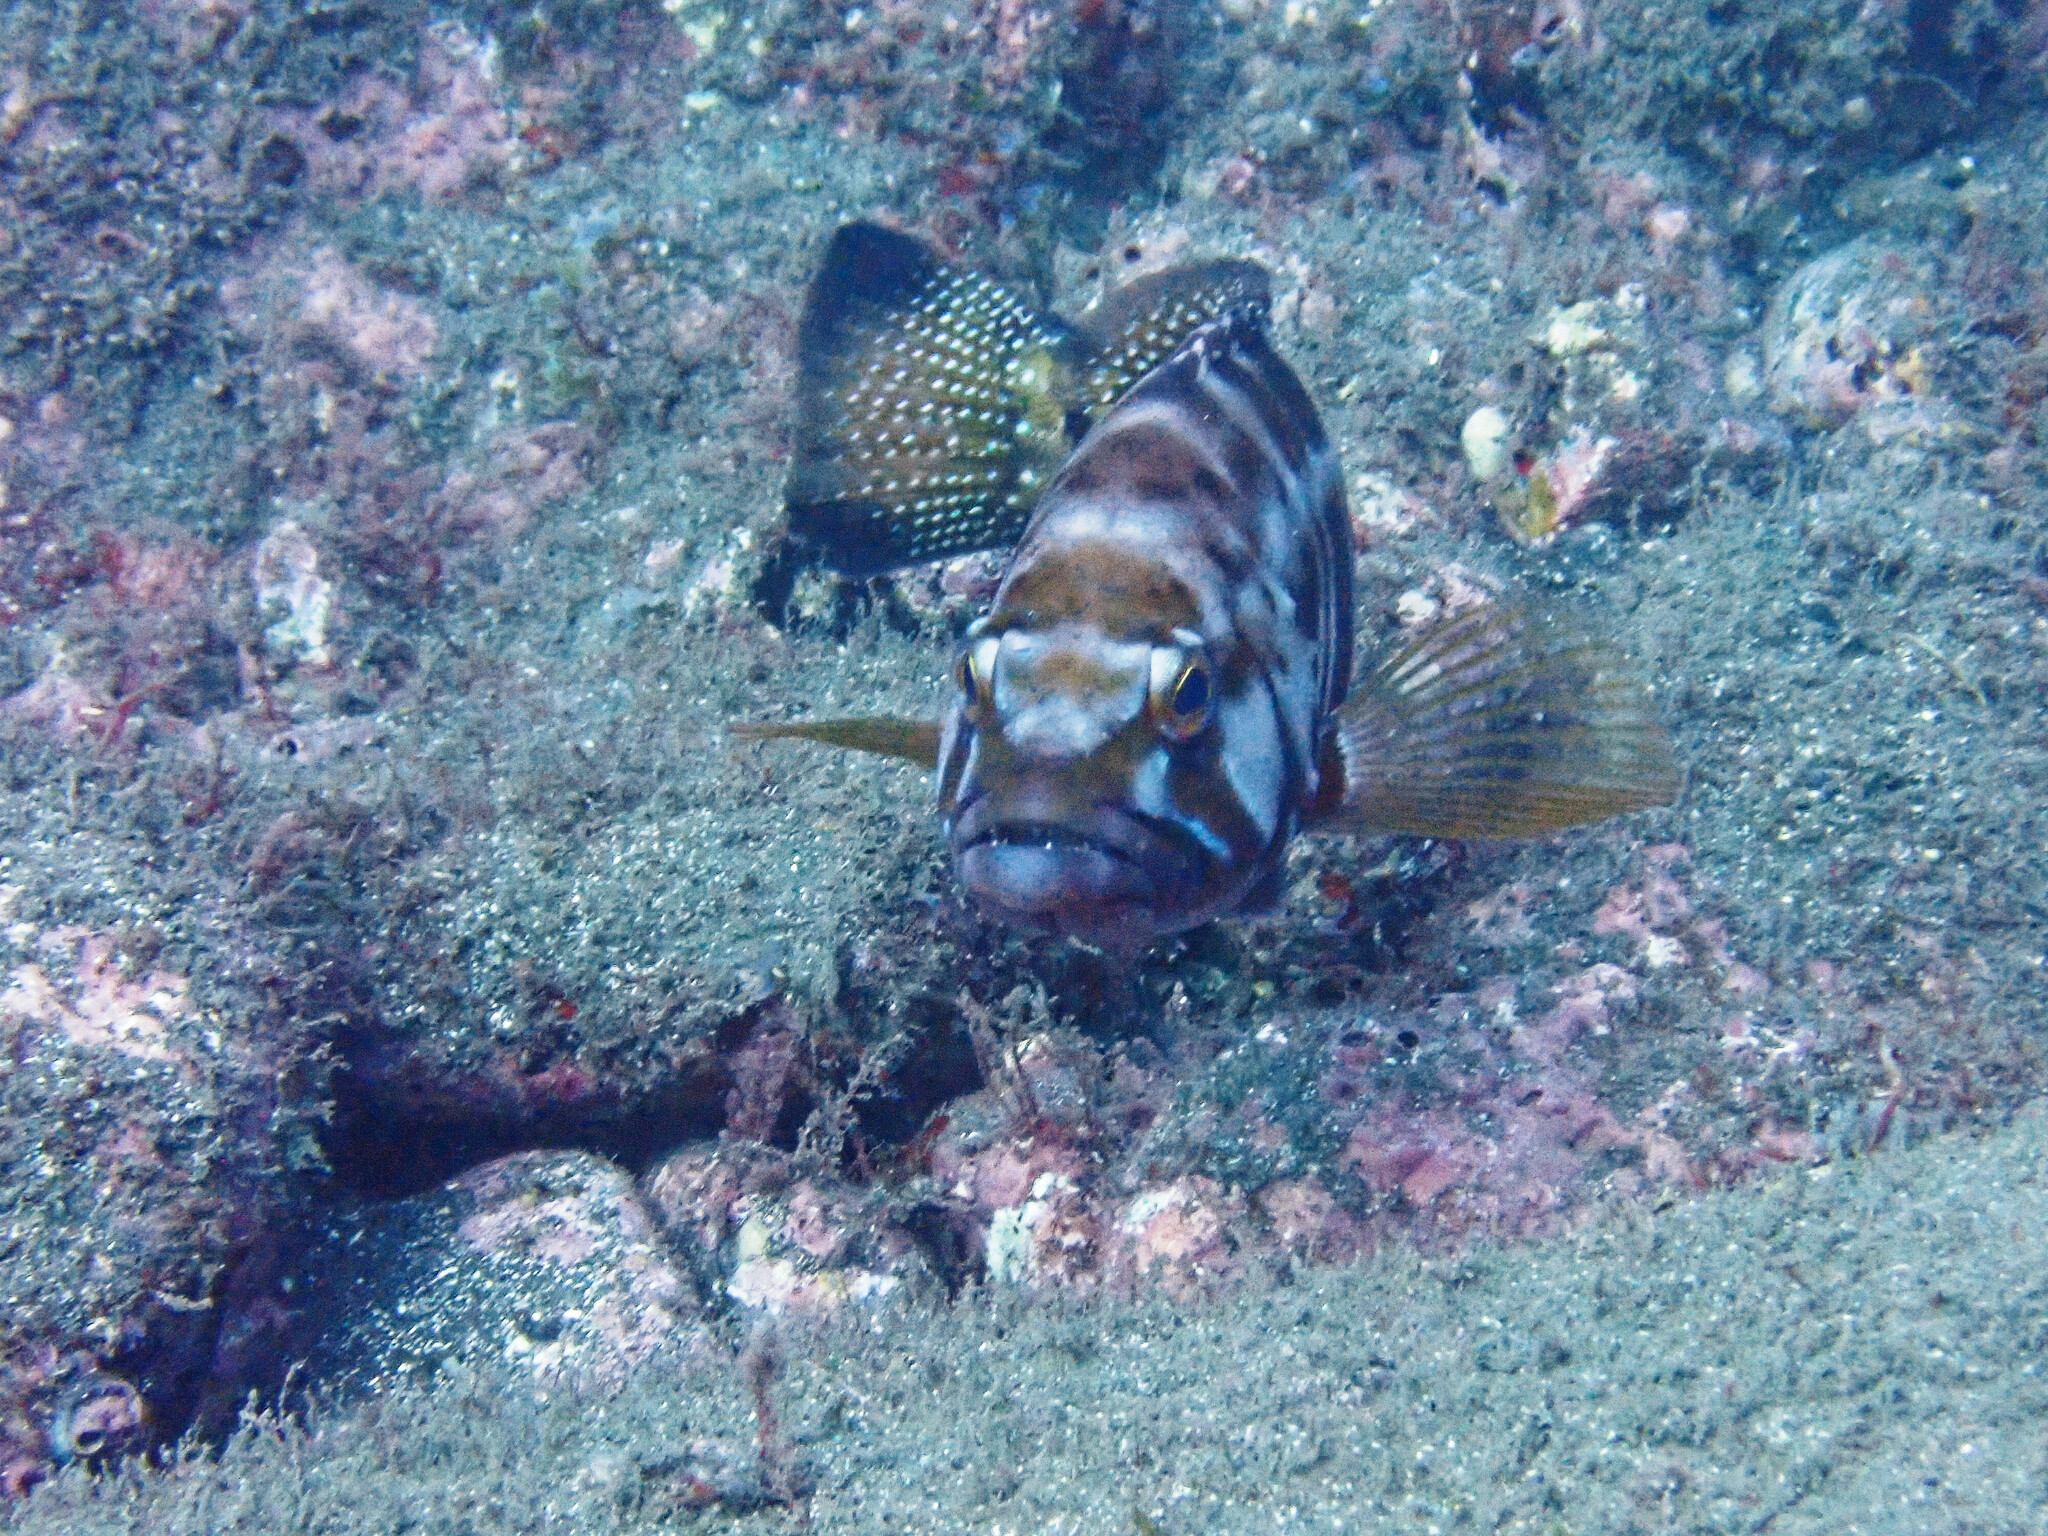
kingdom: Animalia
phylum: Chordata
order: Perciformes
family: Serranidae
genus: Serranus
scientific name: Serranus atricauda
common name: Blacktail comber
